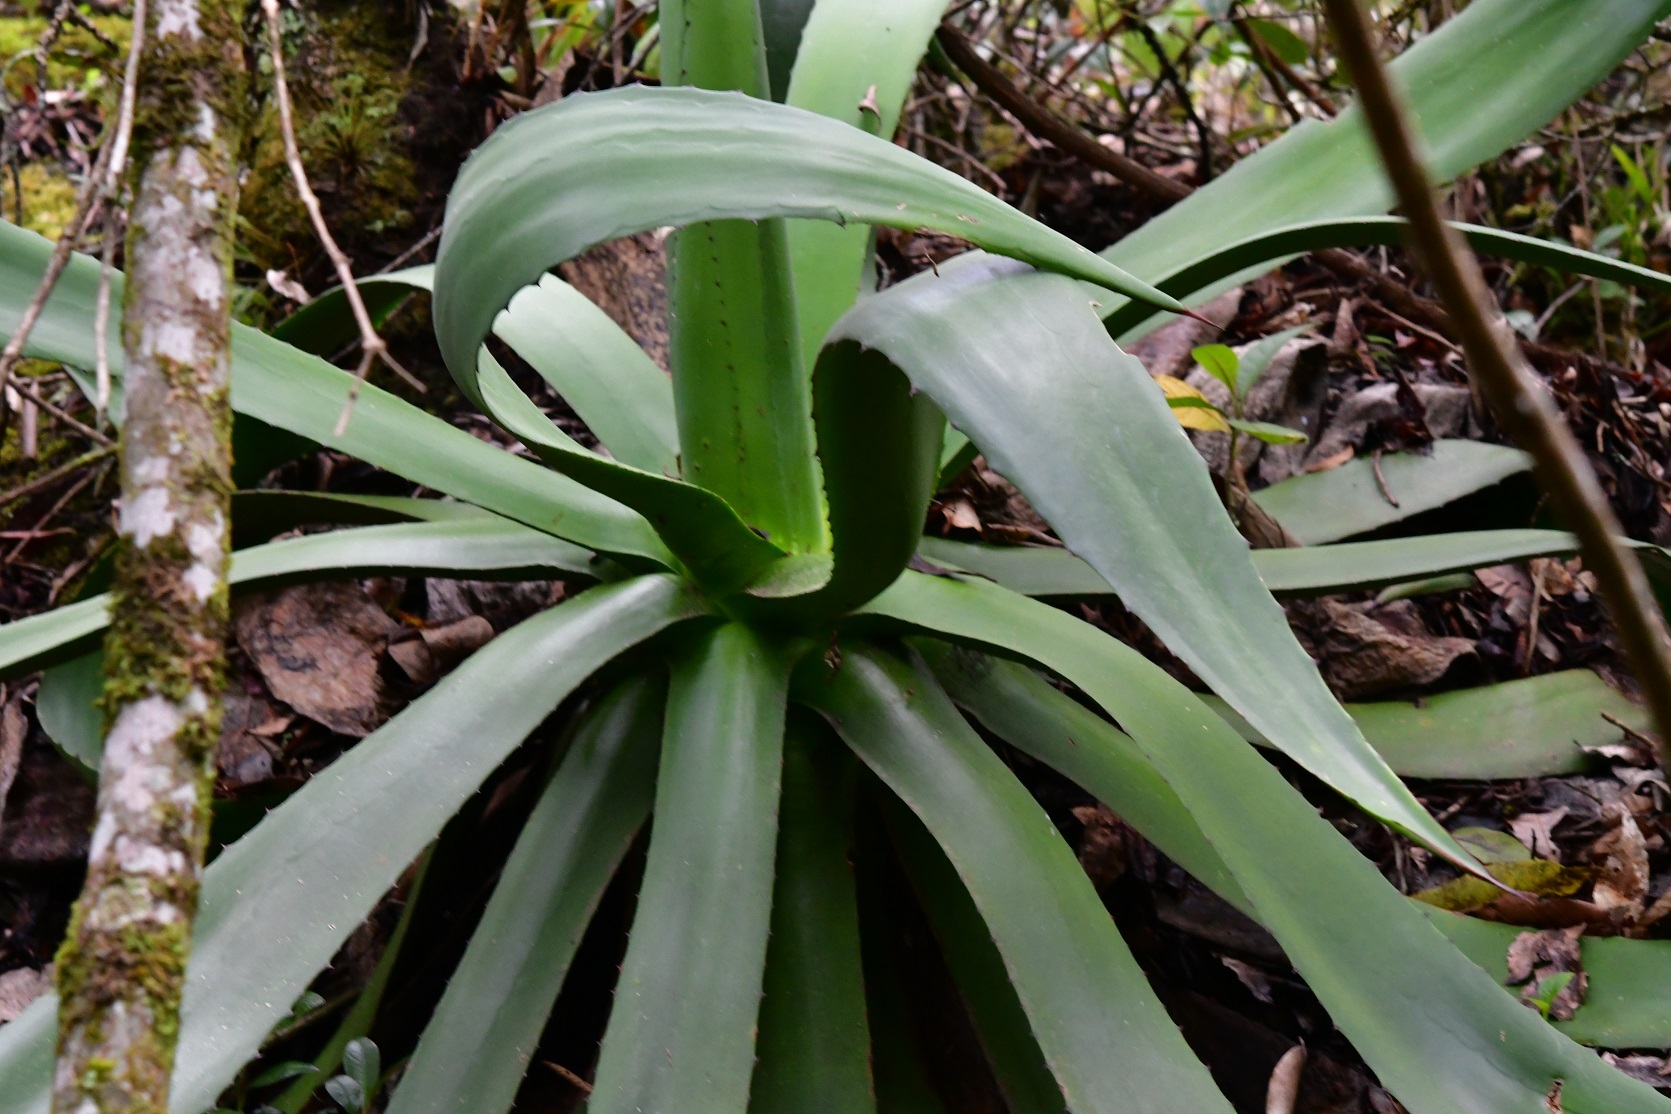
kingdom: Plantae
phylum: Tracheophyta
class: Liliopsida
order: Asparagales
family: Asparagaceae
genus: Agave
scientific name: Agave warelliana
